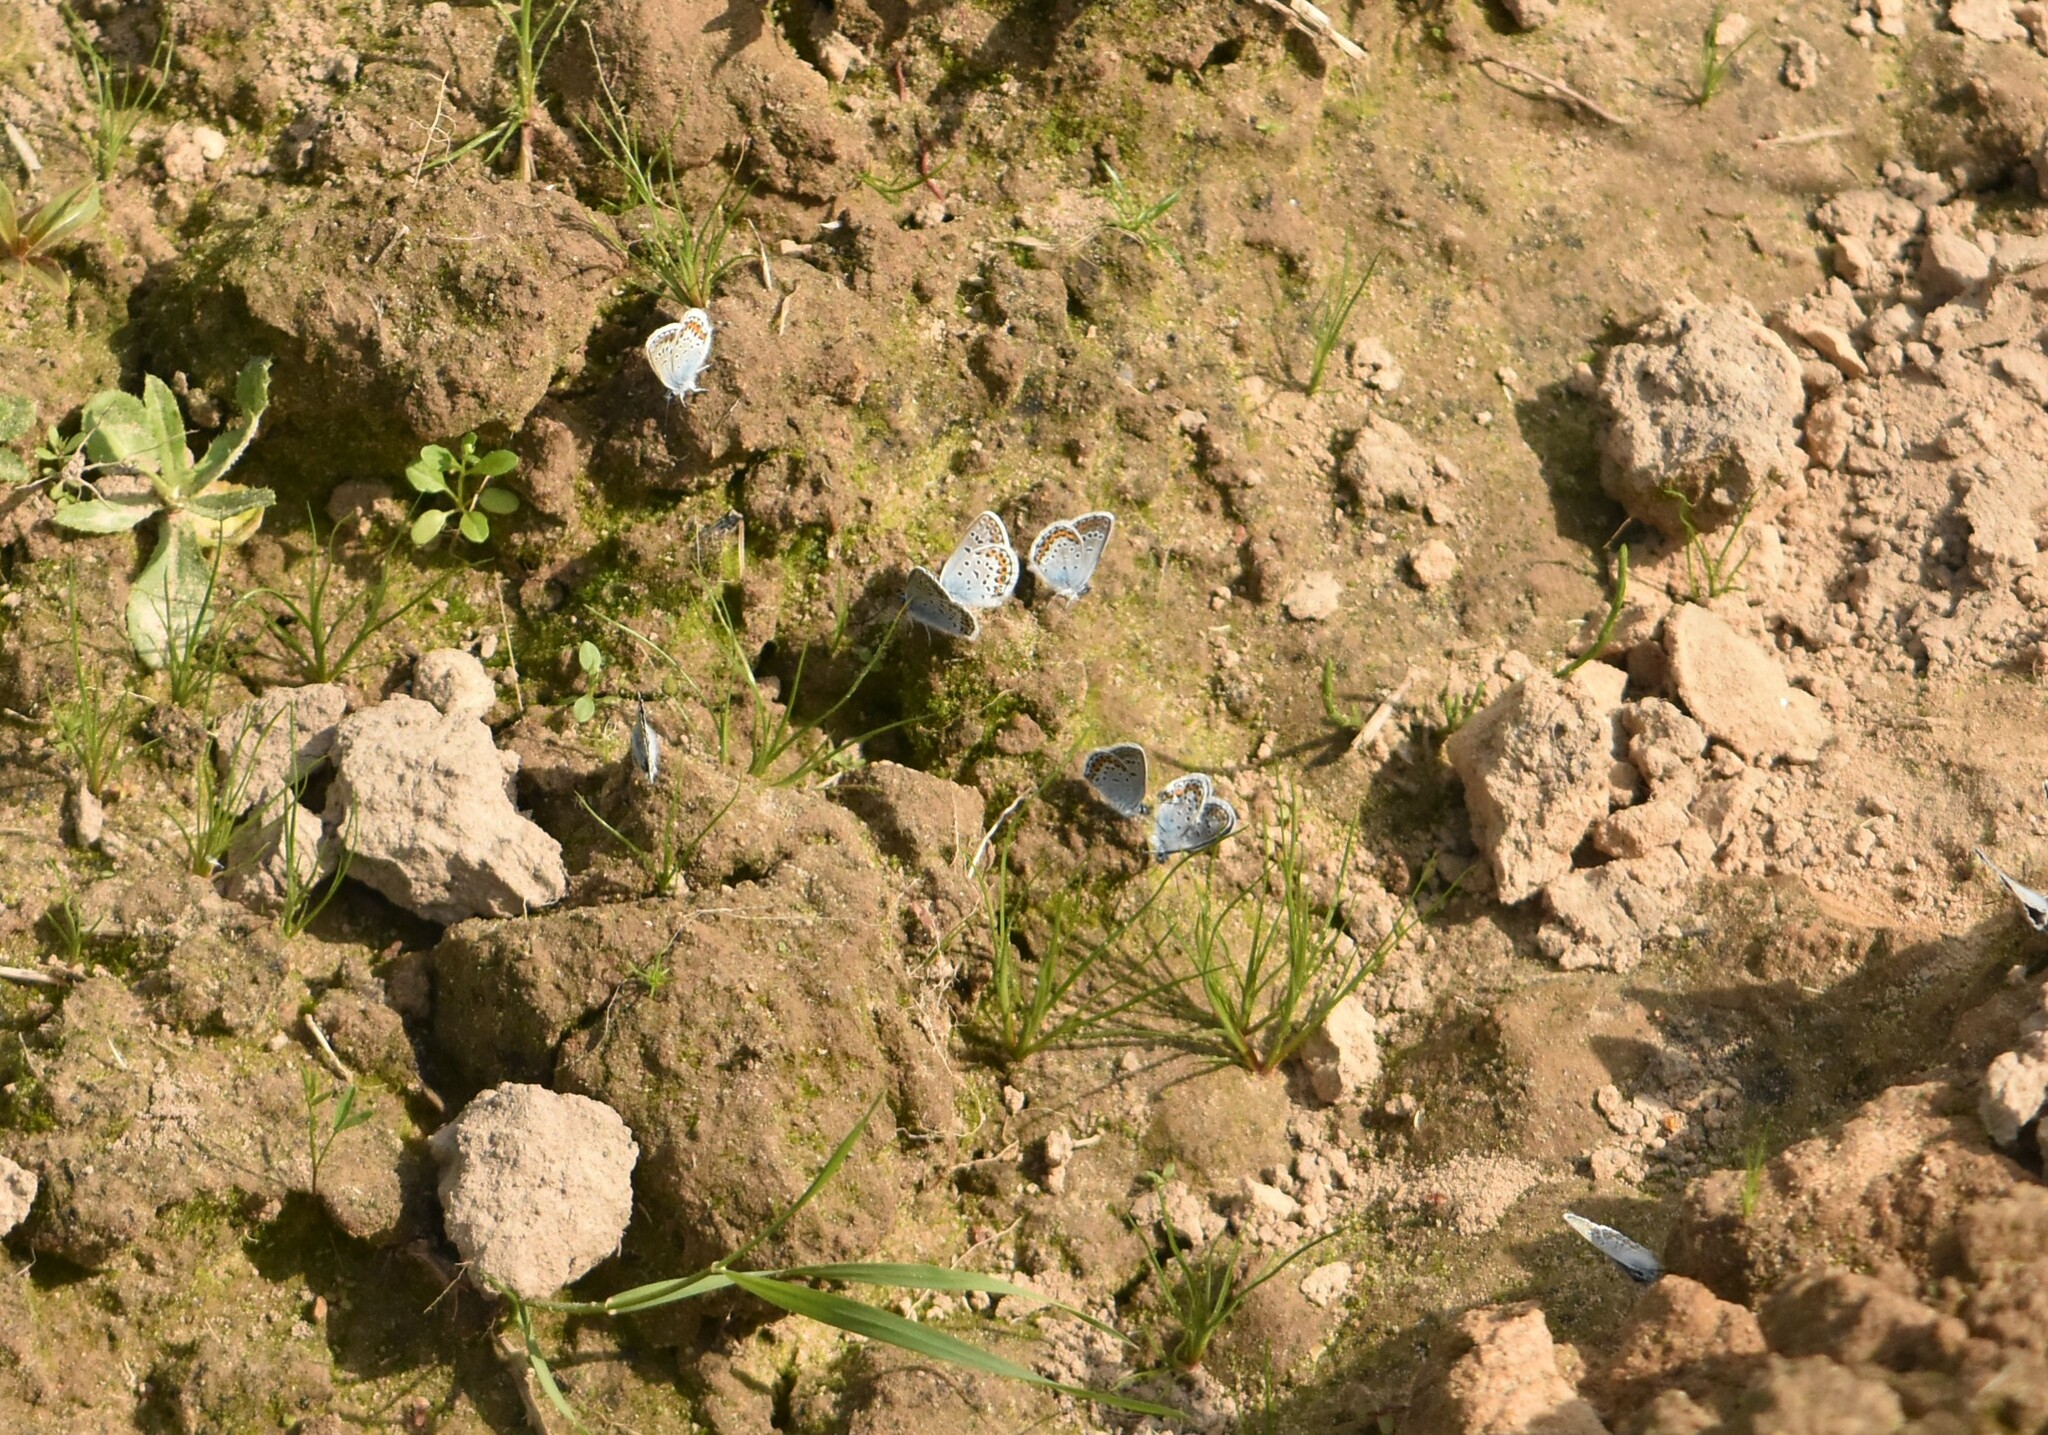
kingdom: Animalia
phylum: Arthropoda
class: Insecta
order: Lepidoptera
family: Lycaenidae
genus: Plebejus
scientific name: Plebejus argus
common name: Silver-studded blue
